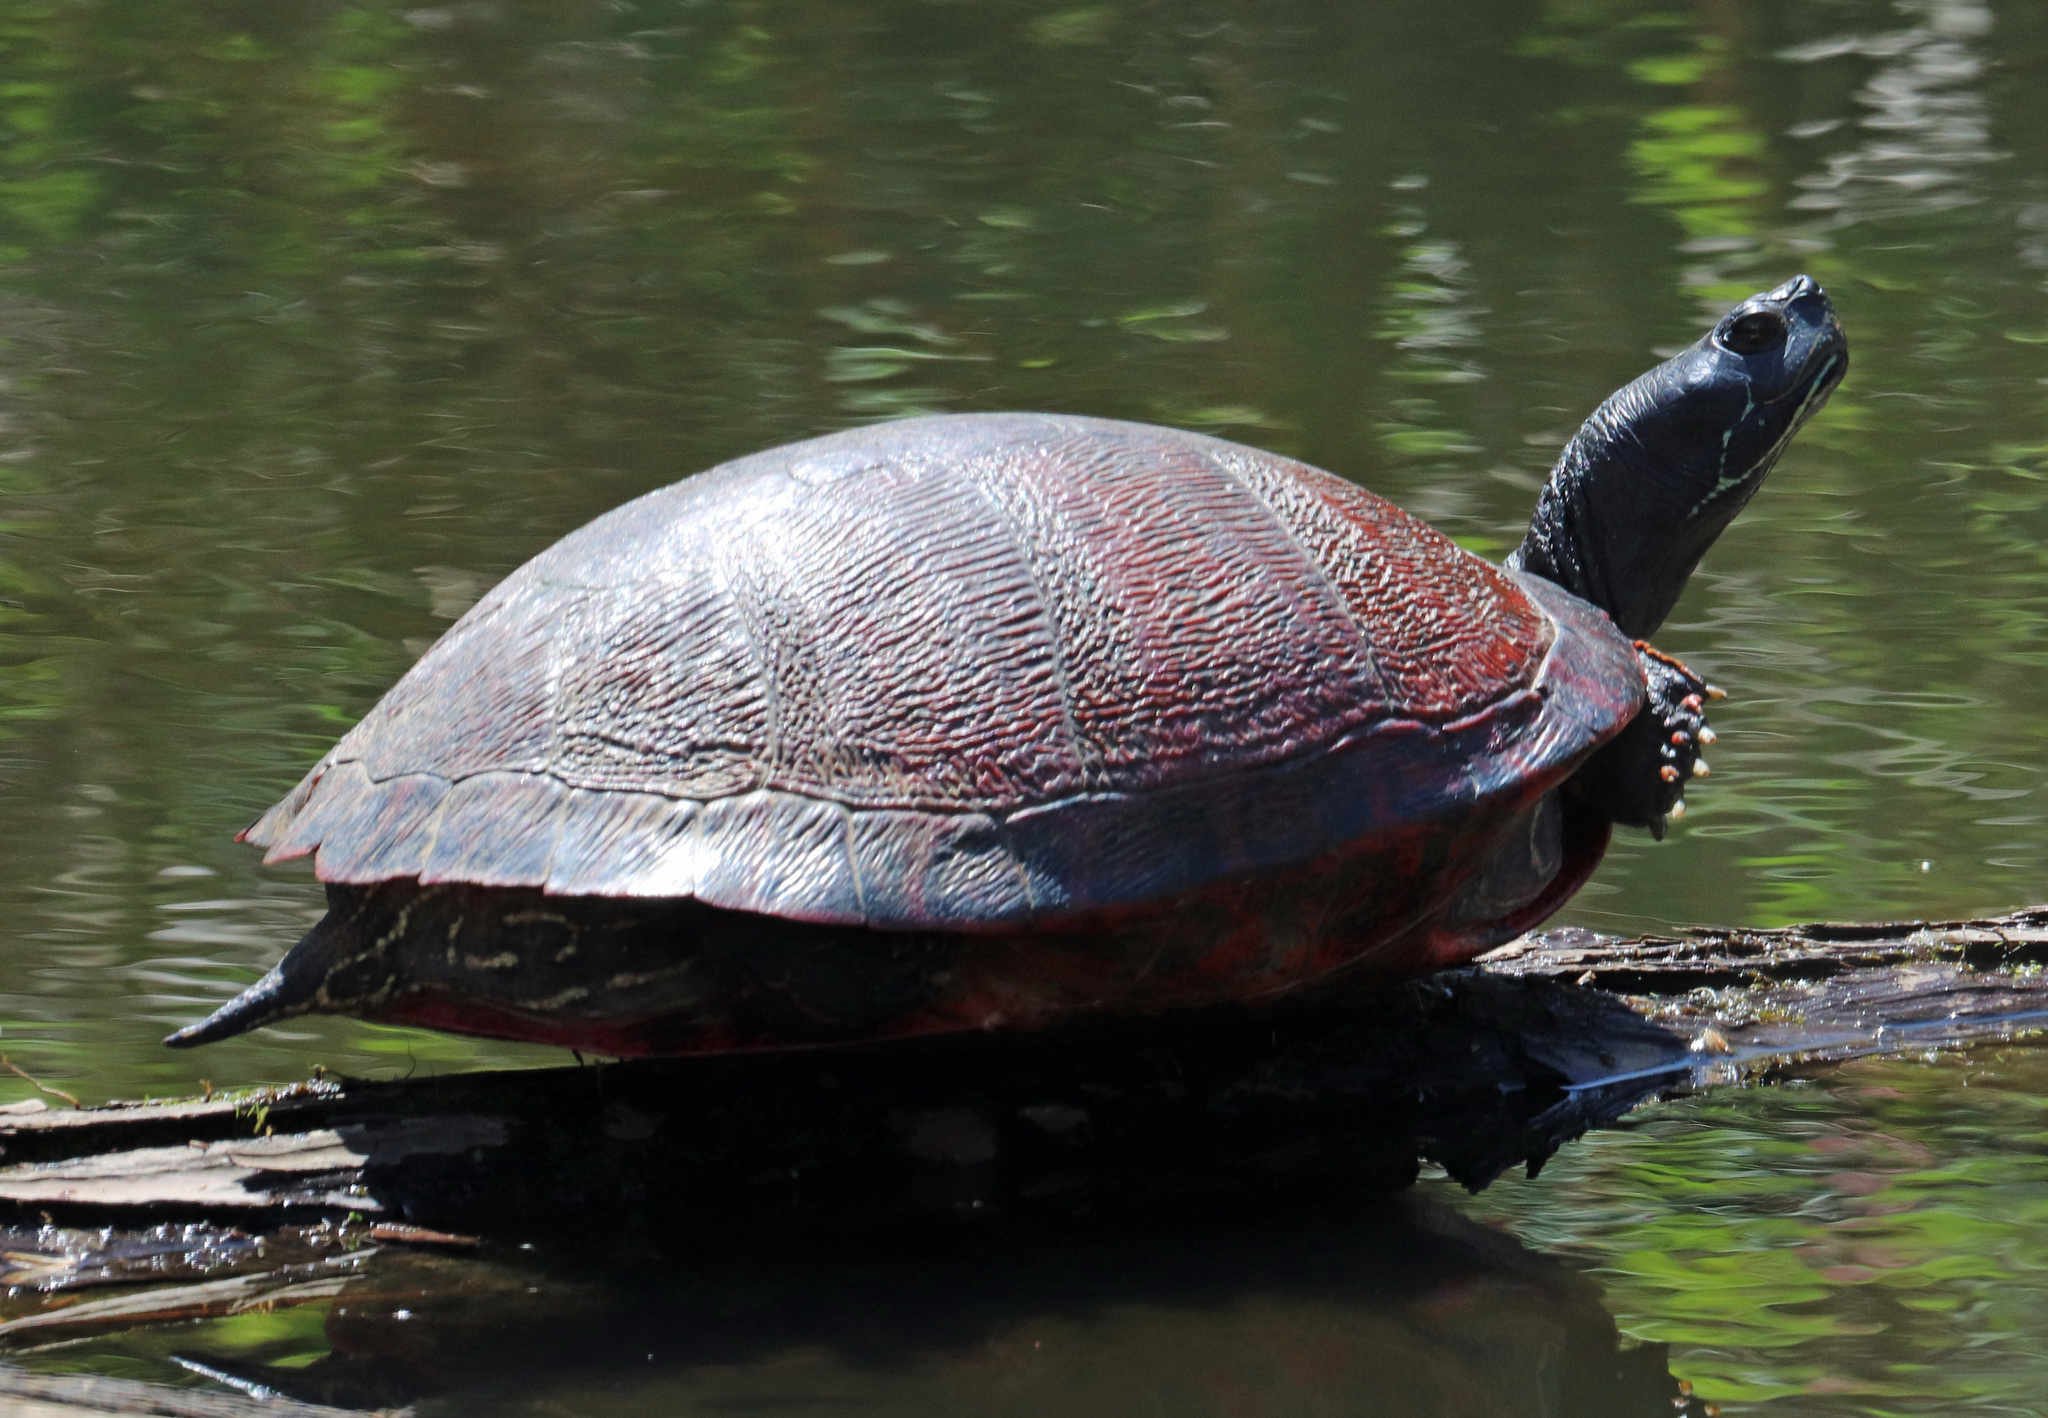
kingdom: Animalia
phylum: Chordata
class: Testudines
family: Emydidae
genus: Pseudemys
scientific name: Pseudemys rubriventris
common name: American red-bellied turtle
